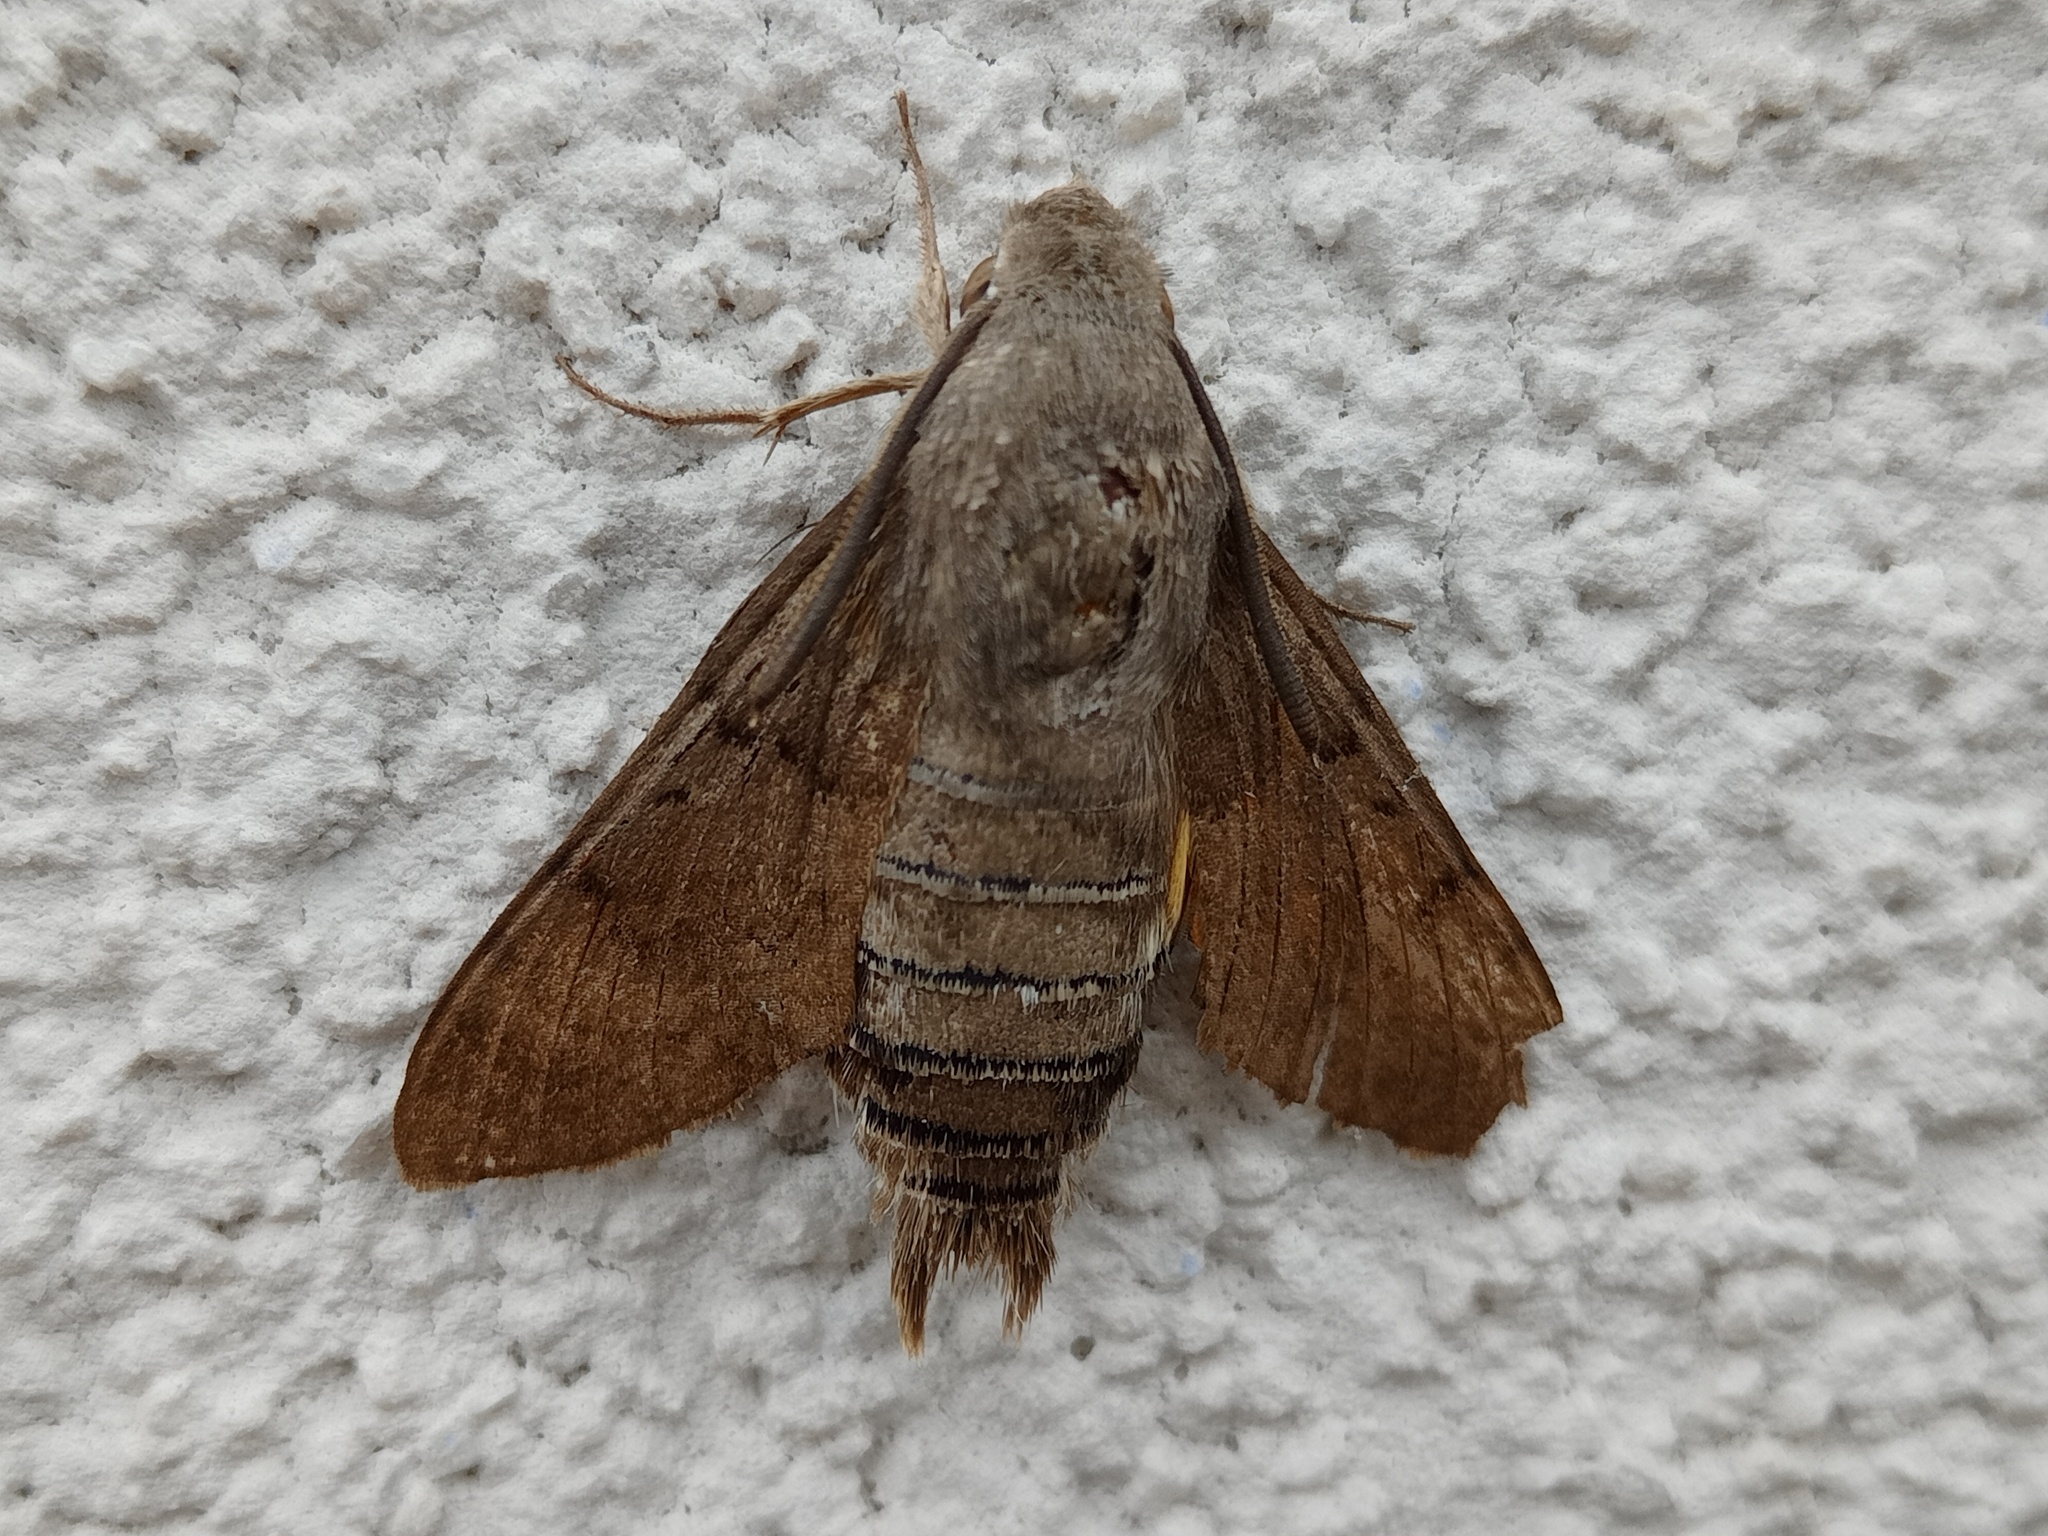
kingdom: Animalia
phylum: Arthropoda
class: Insecta
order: Lepidoptera
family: Sphingidae
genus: Macroglossum
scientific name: Macroglossum stellatarum
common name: Humming-bird hawk-moth
